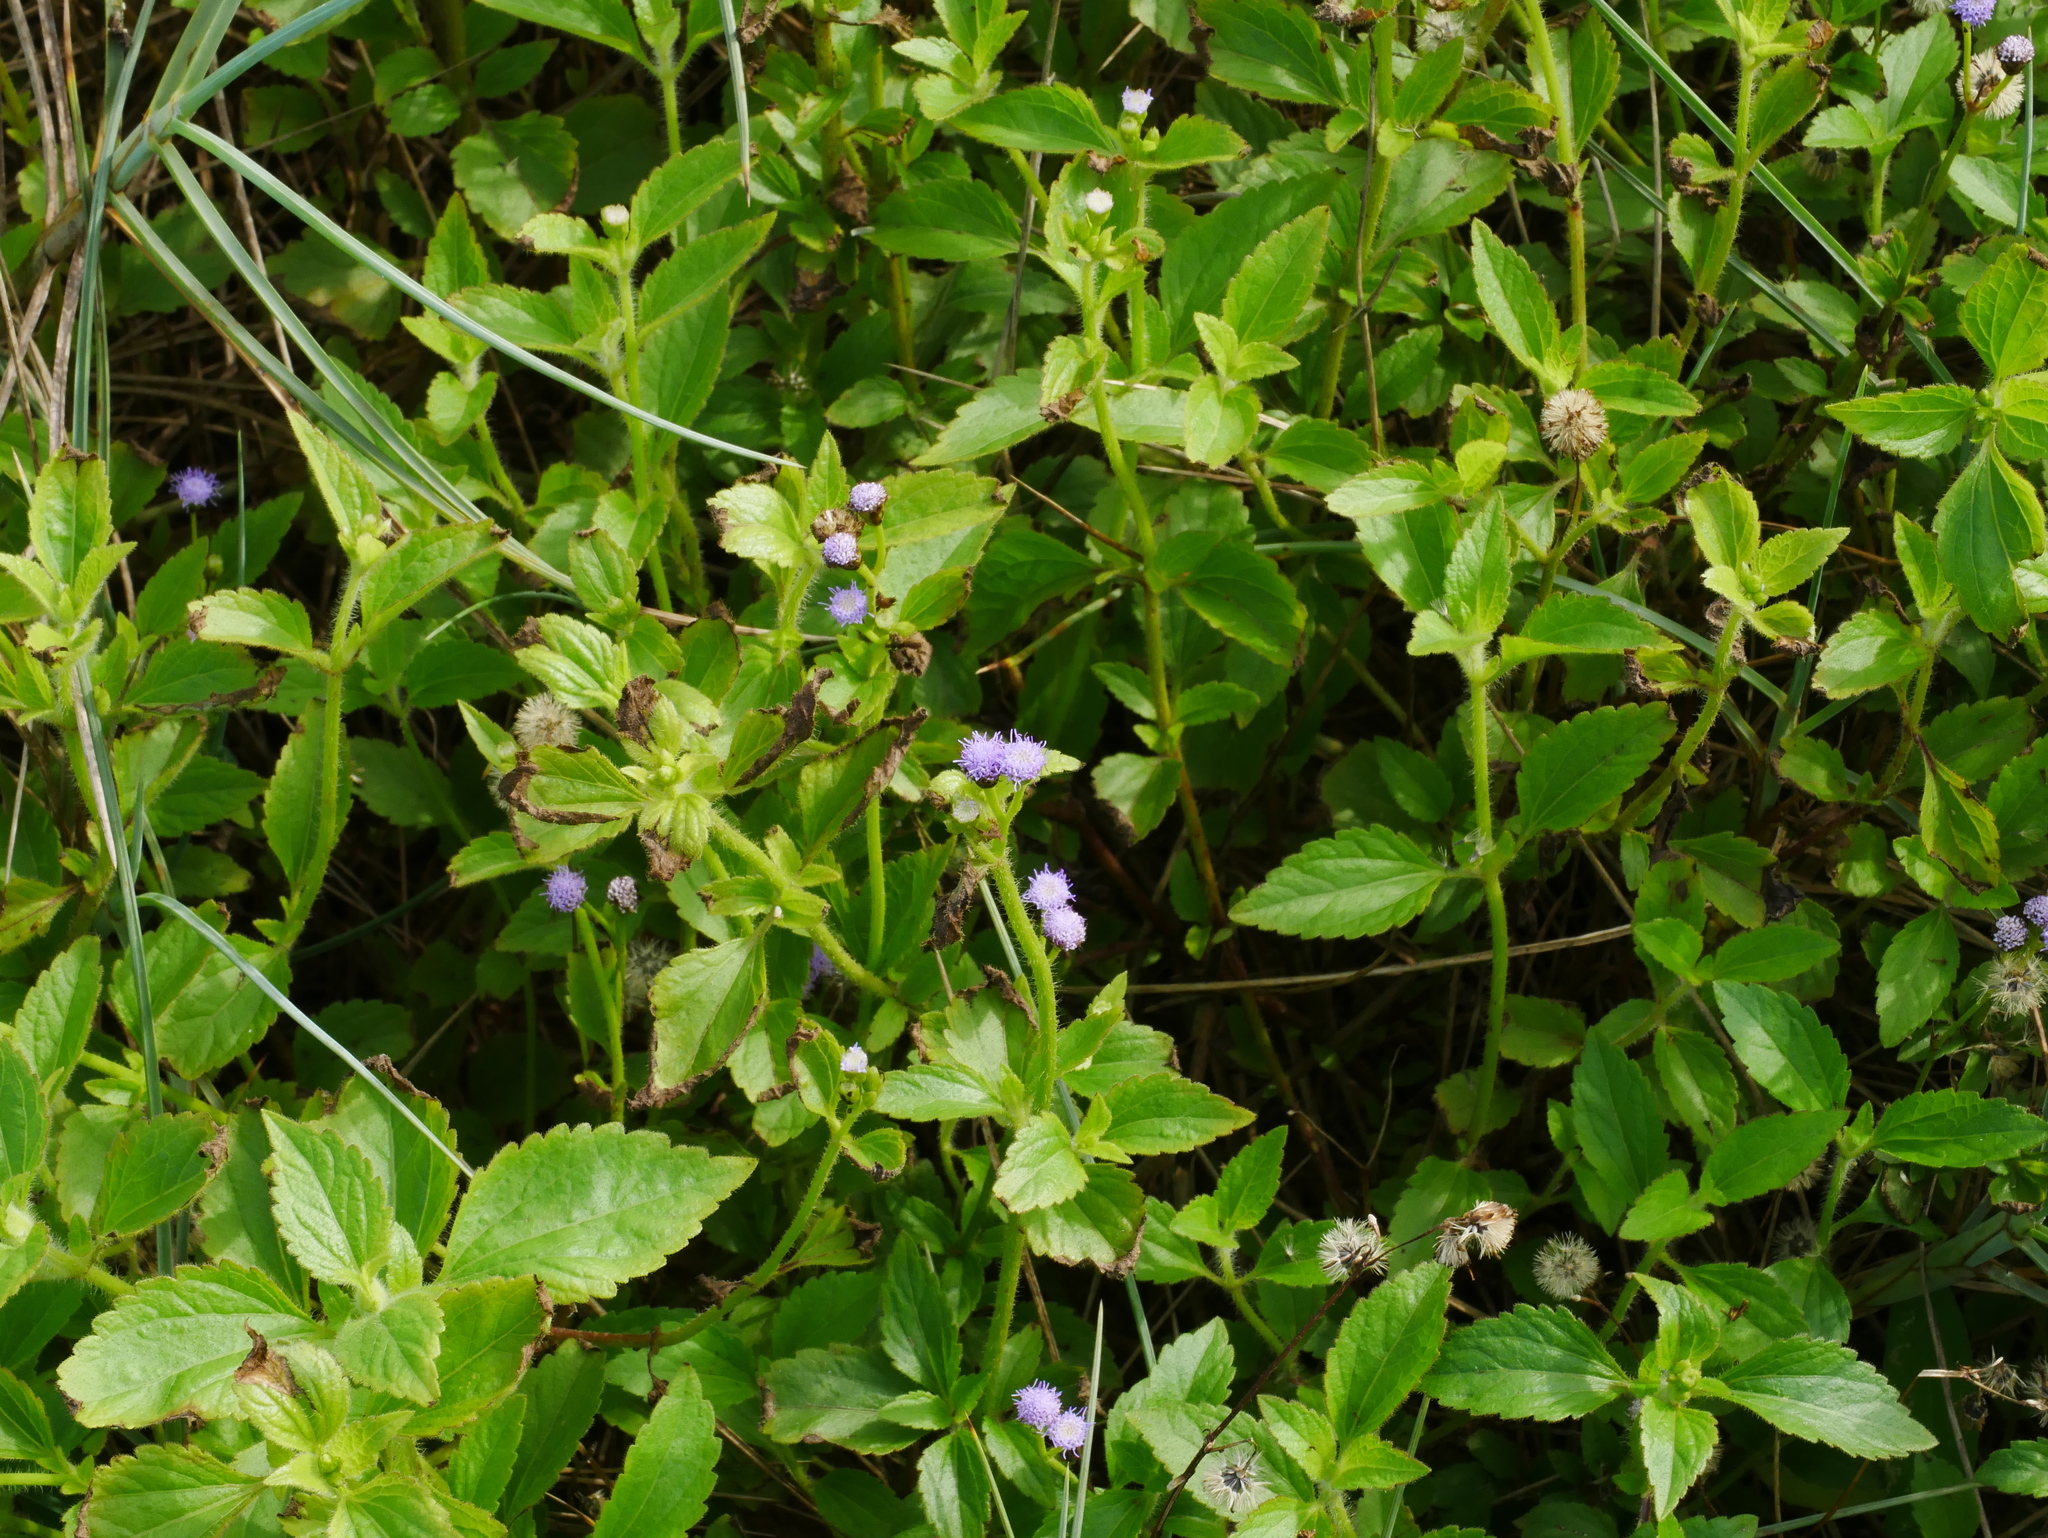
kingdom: Plantae
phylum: Tracheophyta
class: Magnoliopsida
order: Asterales
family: Asteraceae
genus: Praxelis
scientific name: Praxelis clematidea
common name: Praxelis
